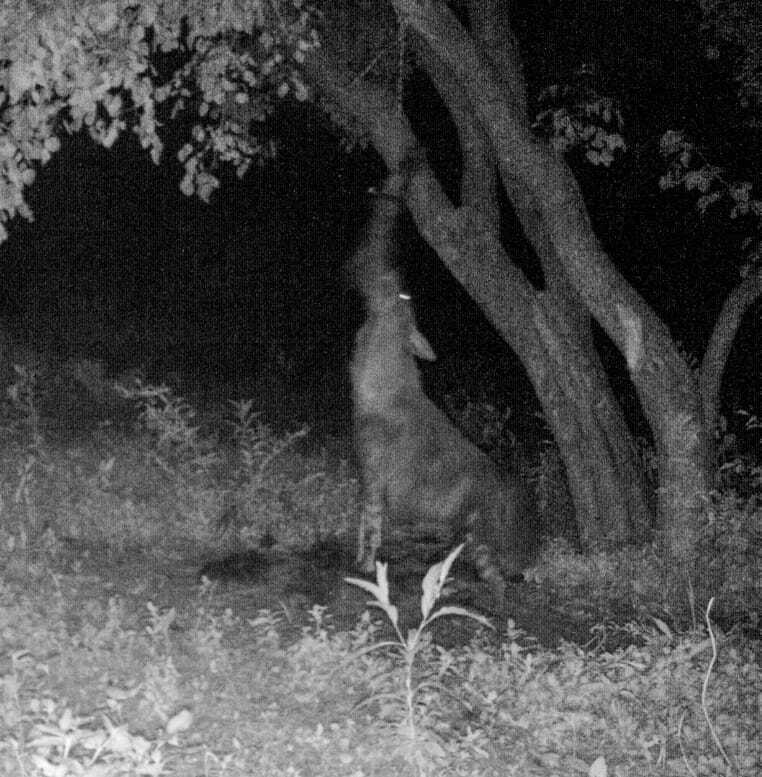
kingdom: Animalia
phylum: Chordata
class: Mammalia
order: Carnivora
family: Hyaenidae
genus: Hyaena
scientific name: Hyaena brunnea
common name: Brown hyena
